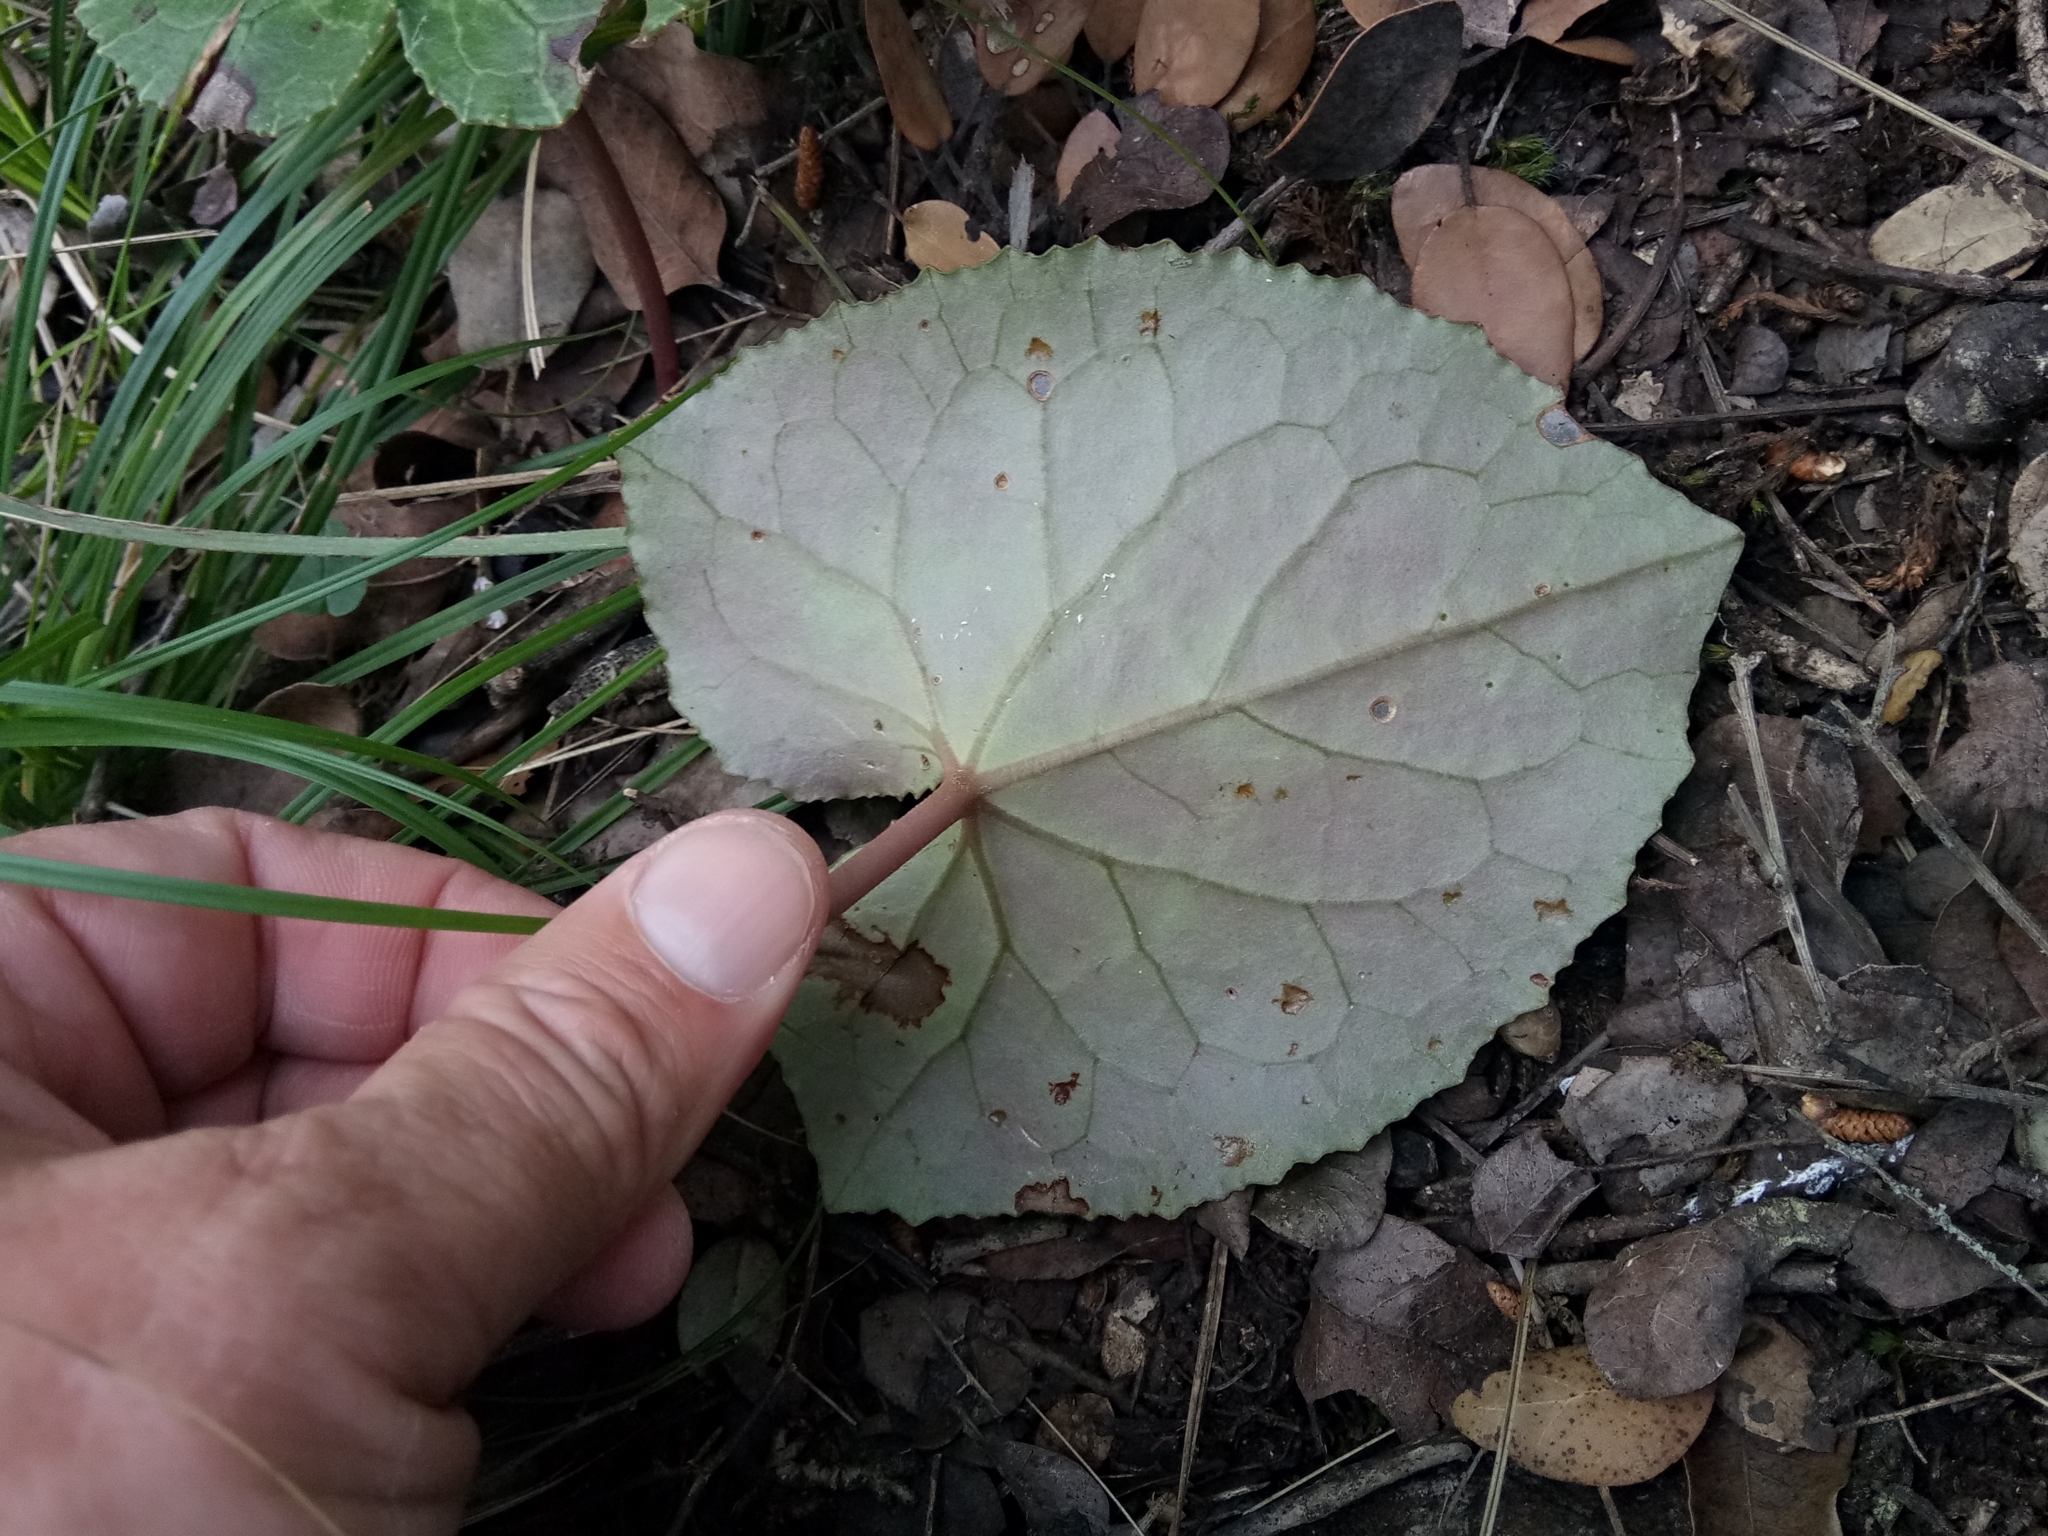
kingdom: Plantae
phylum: Tracheophyta
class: Magnoliopsida
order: Ericales
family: Primulaceae
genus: Cyclamen
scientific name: Cyclamen africanum
